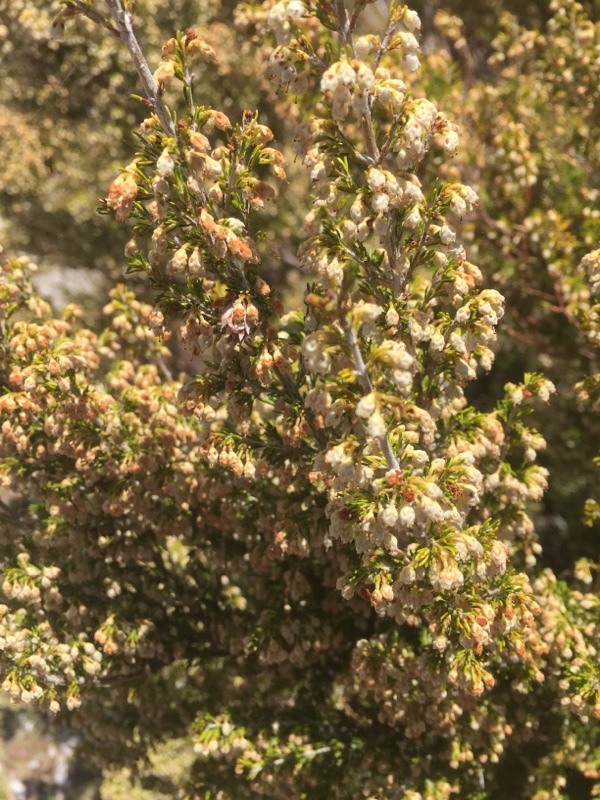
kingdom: Plantae
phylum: Tracheophyta
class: Magnoliopsida
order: Ericales
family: Ericaceae
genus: Erica
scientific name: Erica arborea
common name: Tree heath
